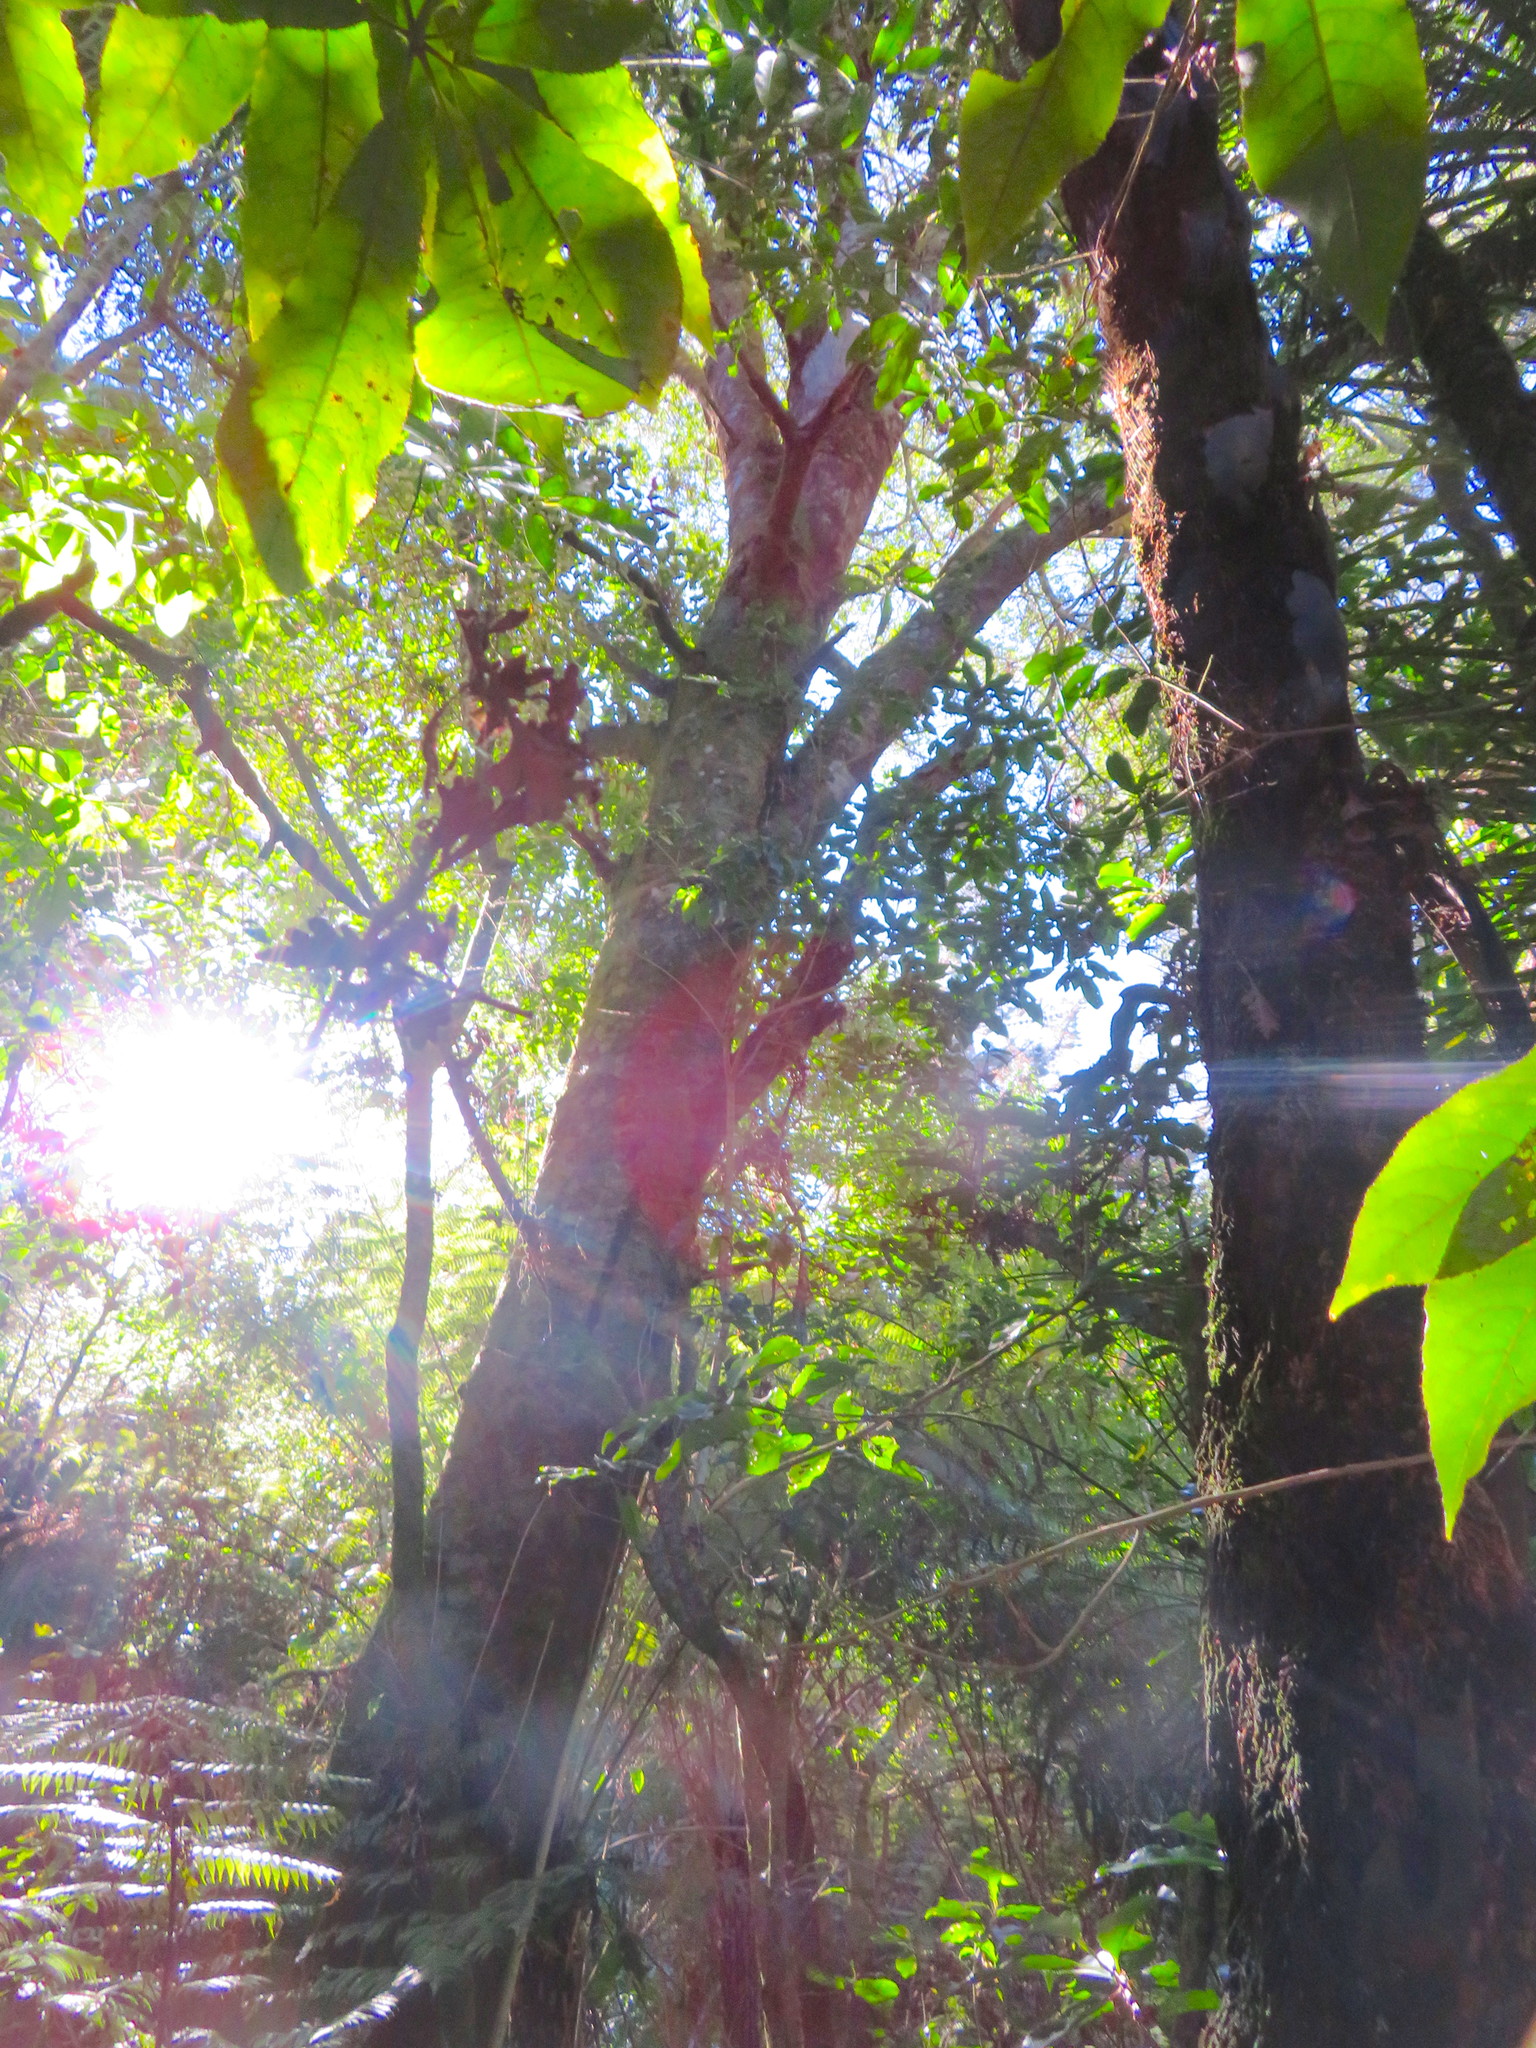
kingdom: Plantae
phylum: Tracheophyta
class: Pinopsida
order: Pinales
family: Phyllocladaceae
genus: Phyllocladus
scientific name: Phyllocladus trichomanoides
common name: Celery pine
